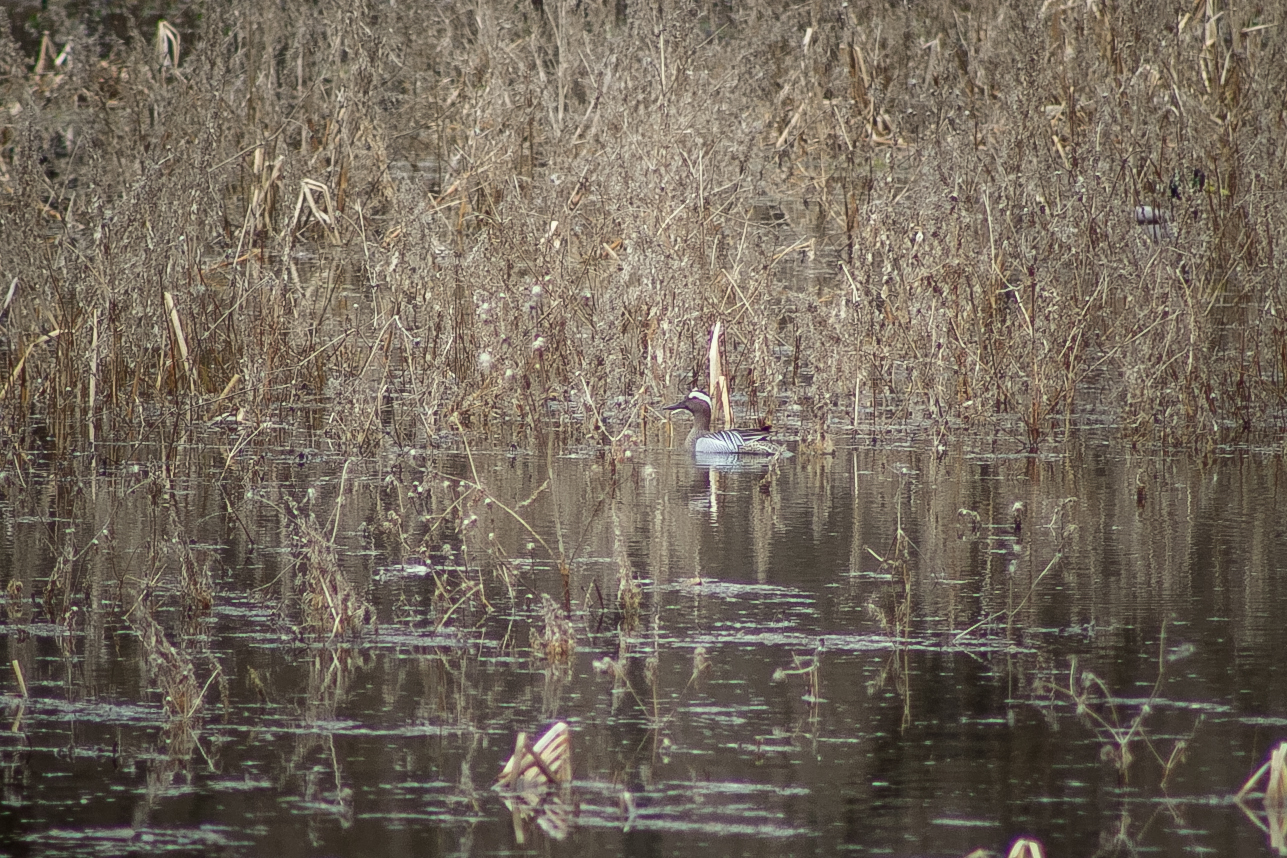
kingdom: Animalia
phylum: Chordata
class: Aves
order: Anseriformes
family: Anatidae
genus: Spatula
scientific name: Spatula querquedula
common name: Garganey
